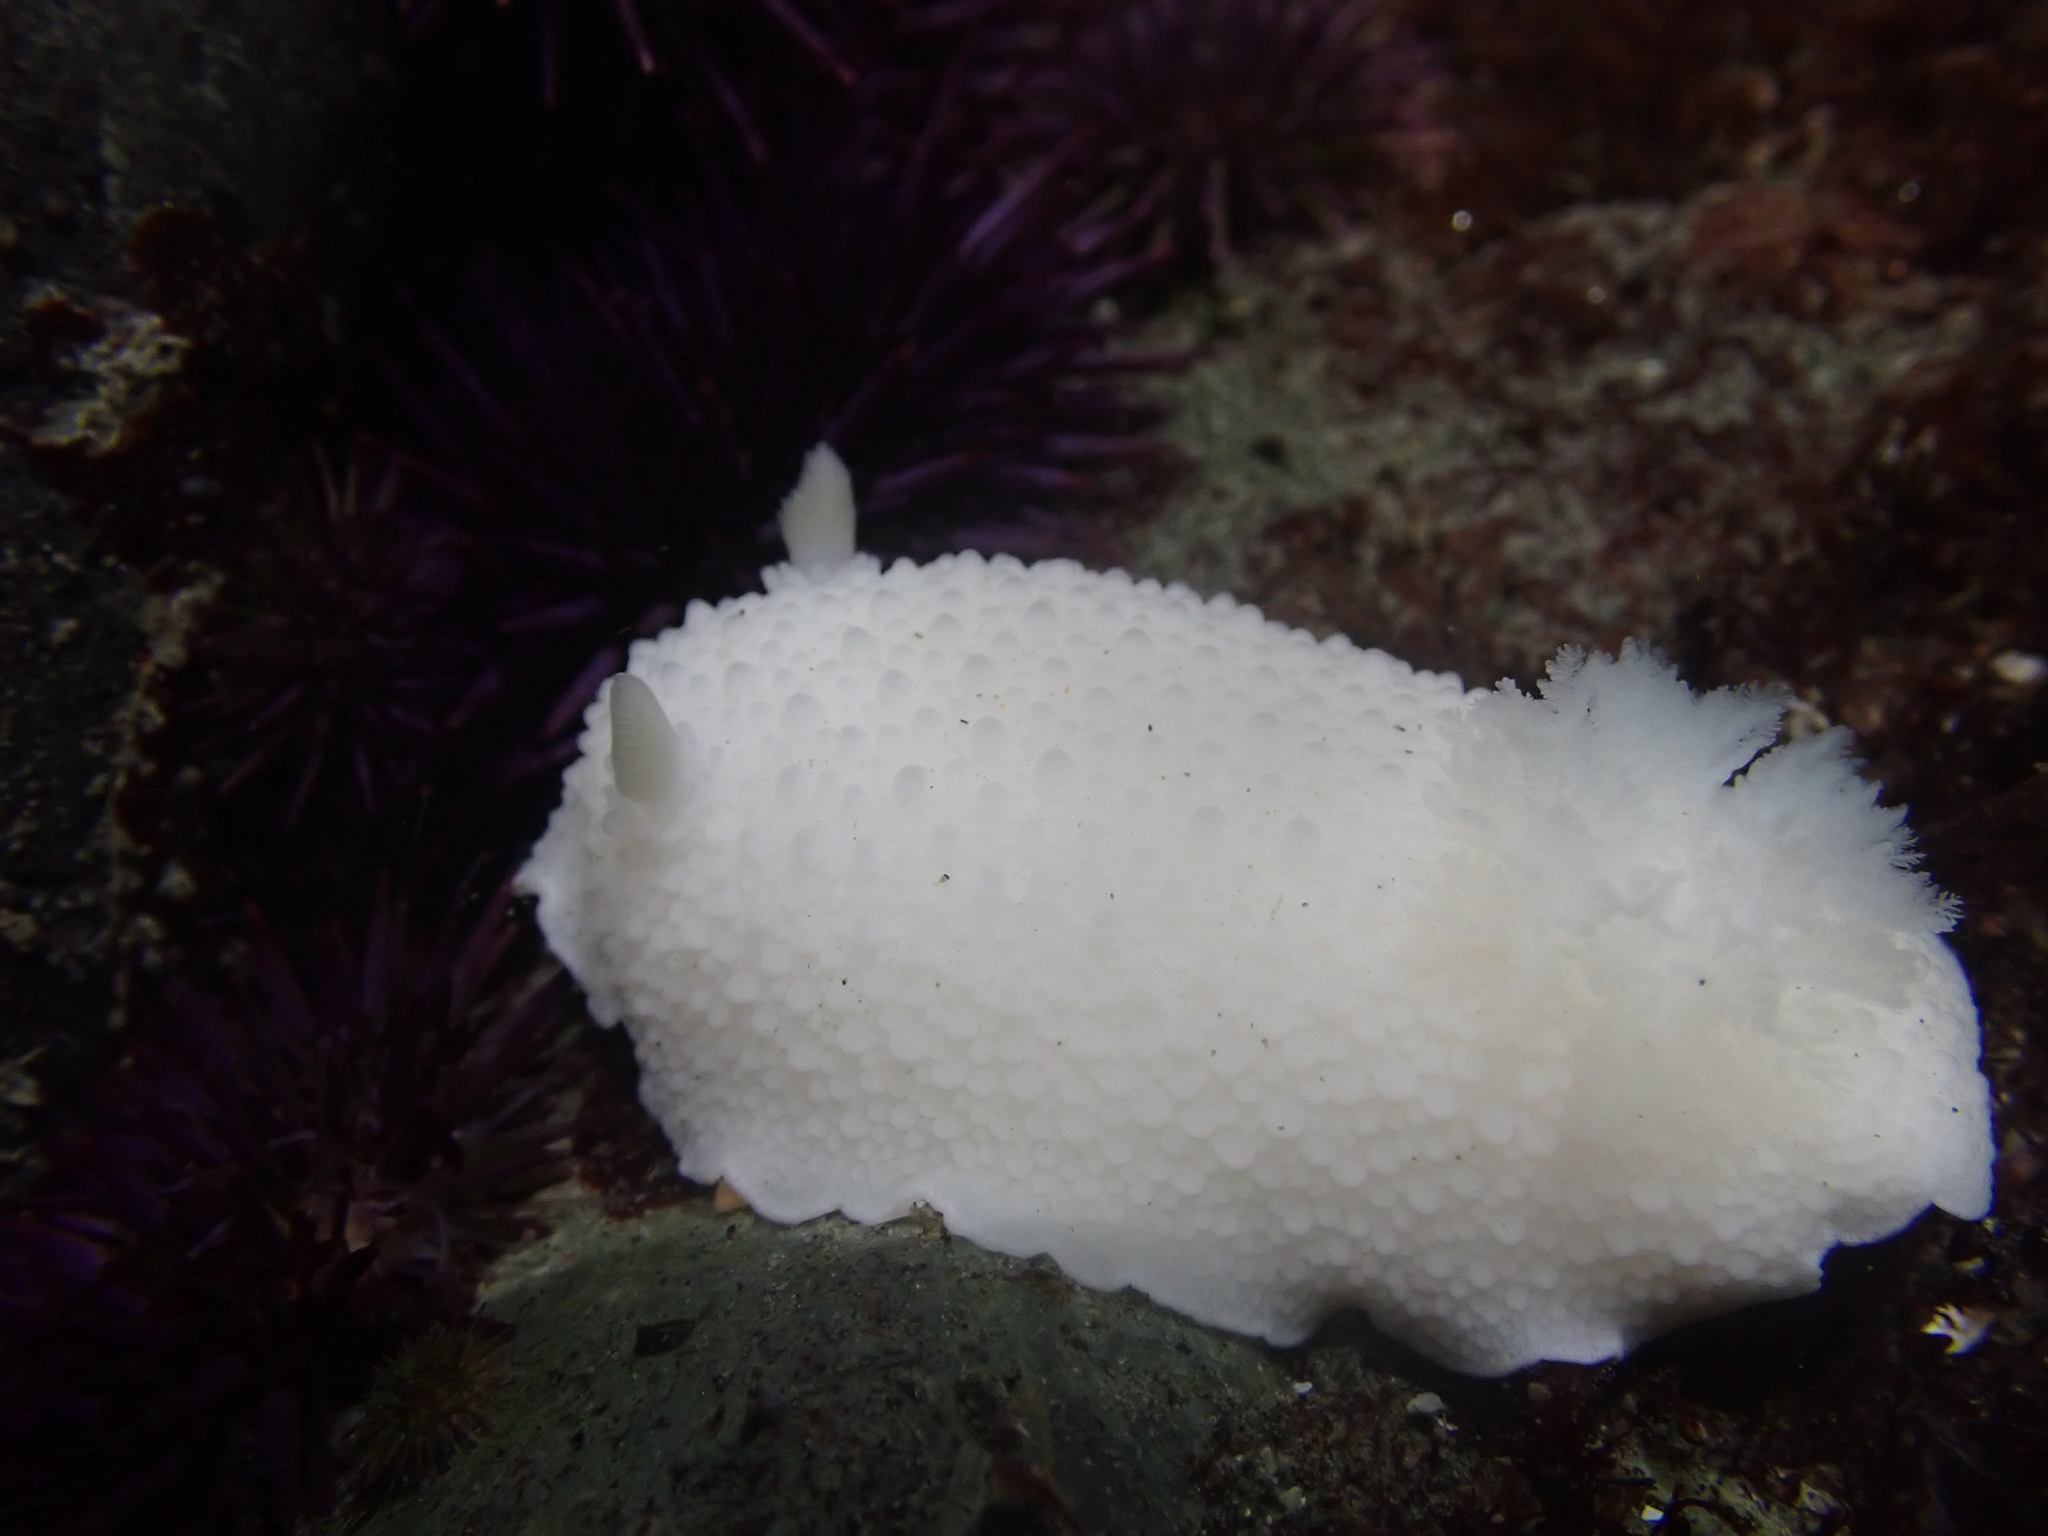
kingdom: Animalia
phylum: Mollusca
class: Gastropoda
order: Nudibranchia
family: Dorididae
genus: Doris
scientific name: Doris odhneri
